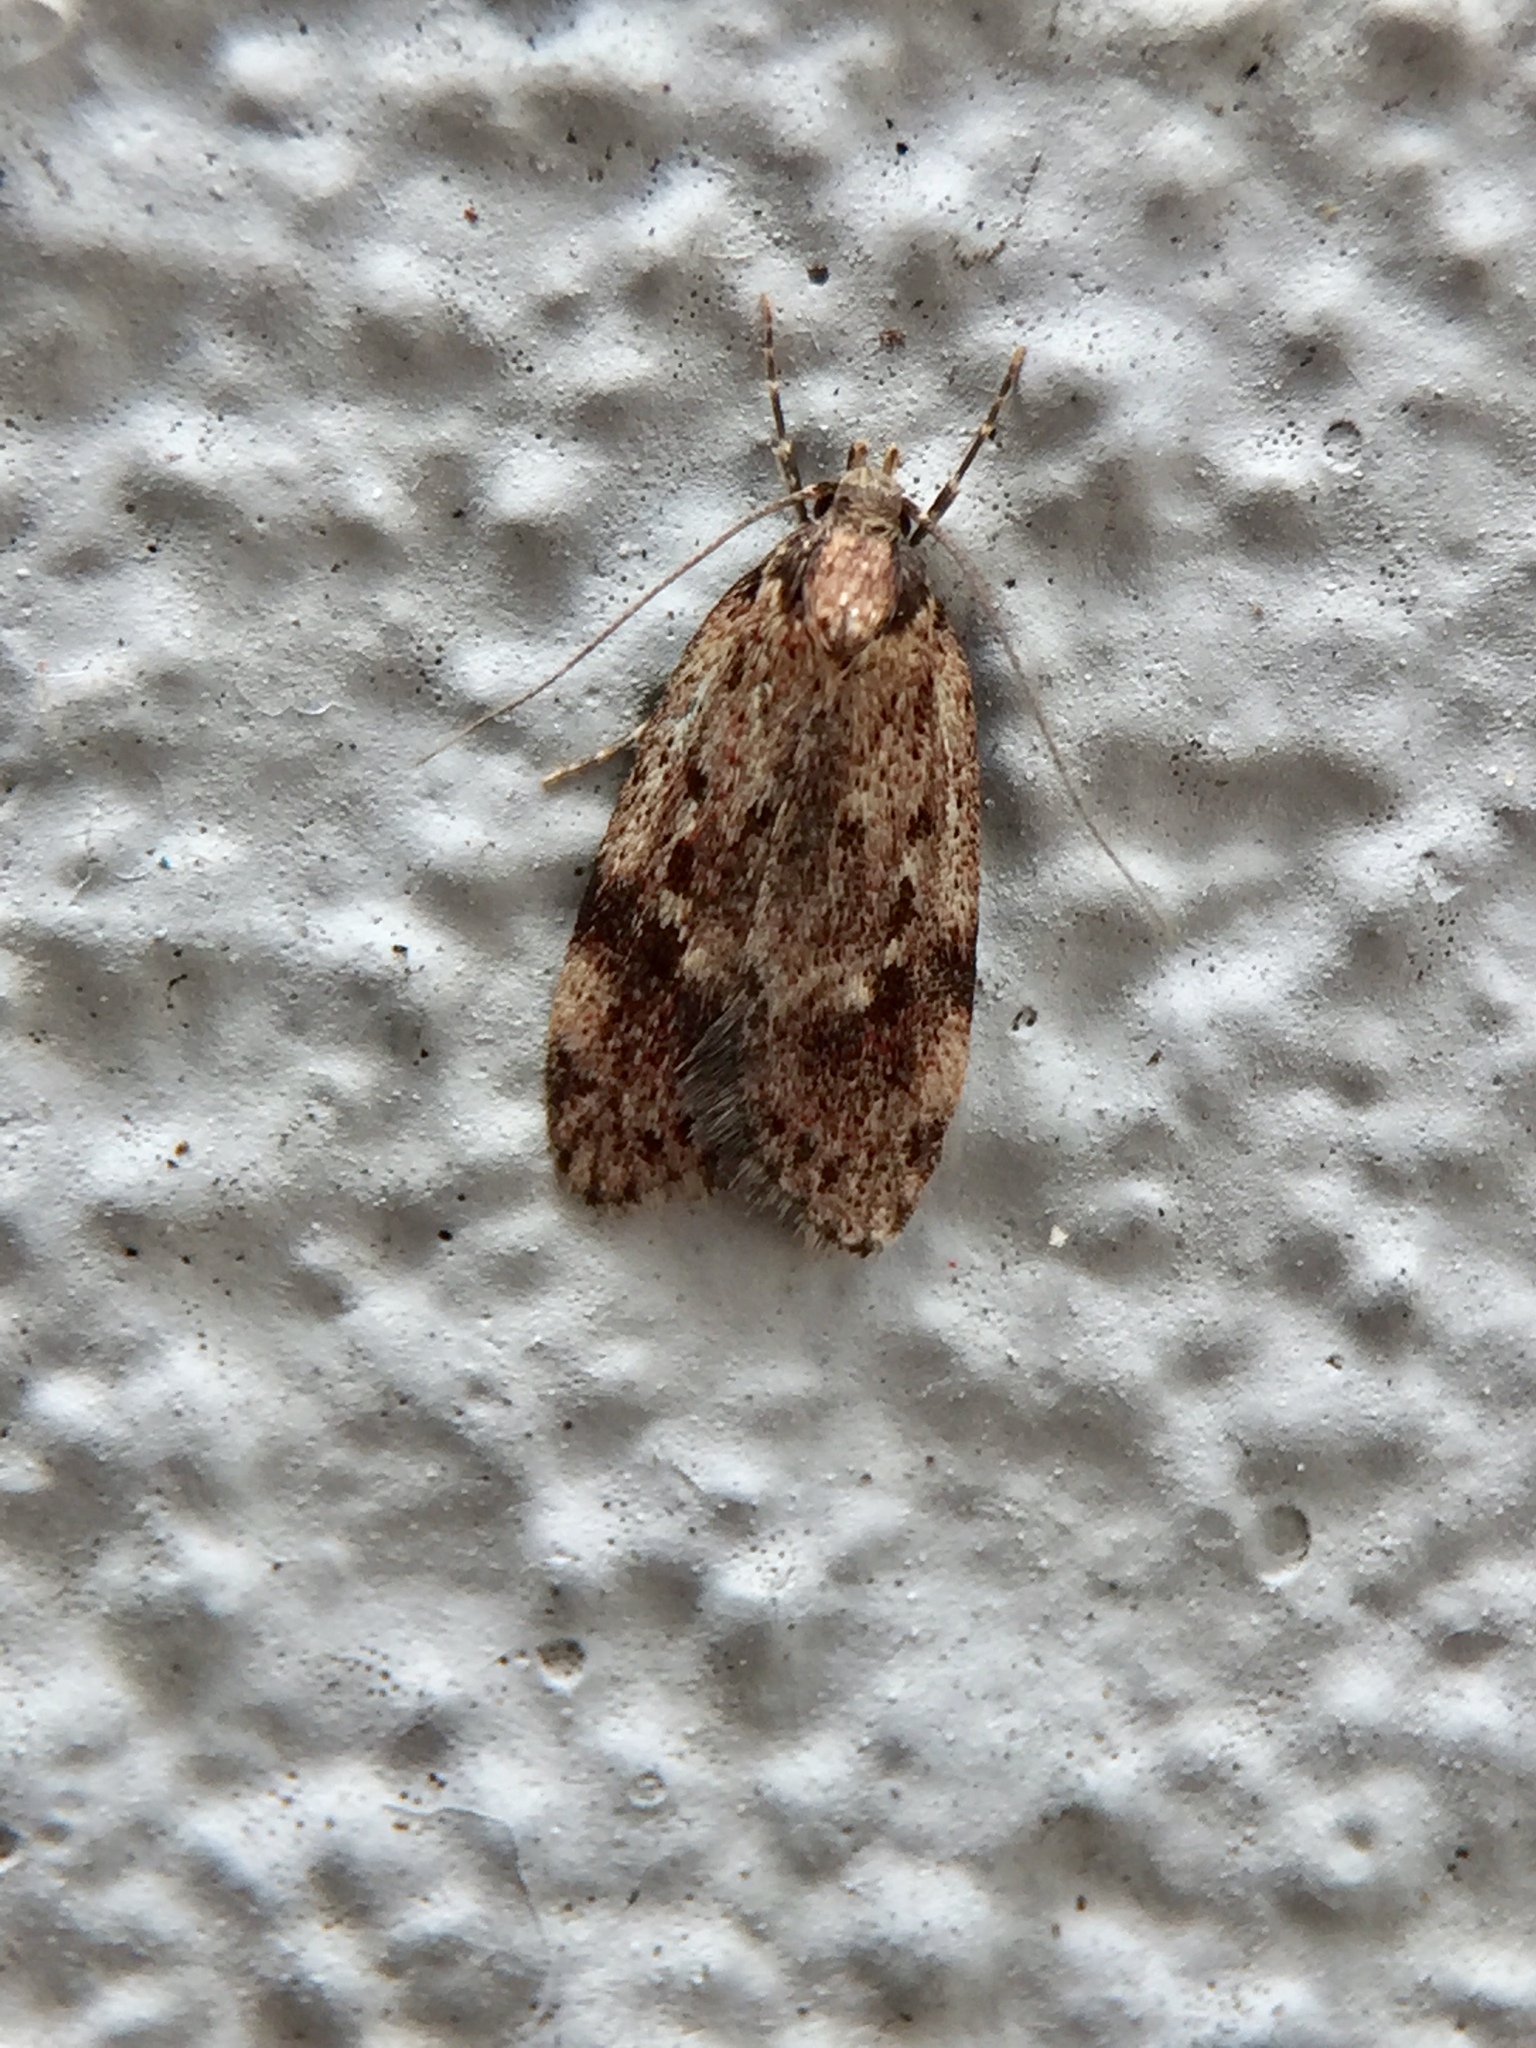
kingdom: Animalia
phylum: Arthropoda
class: Insecta
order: Lepidoptera
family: Oecophoridae
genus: Eulechria
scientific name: Eulechria zophoessa
